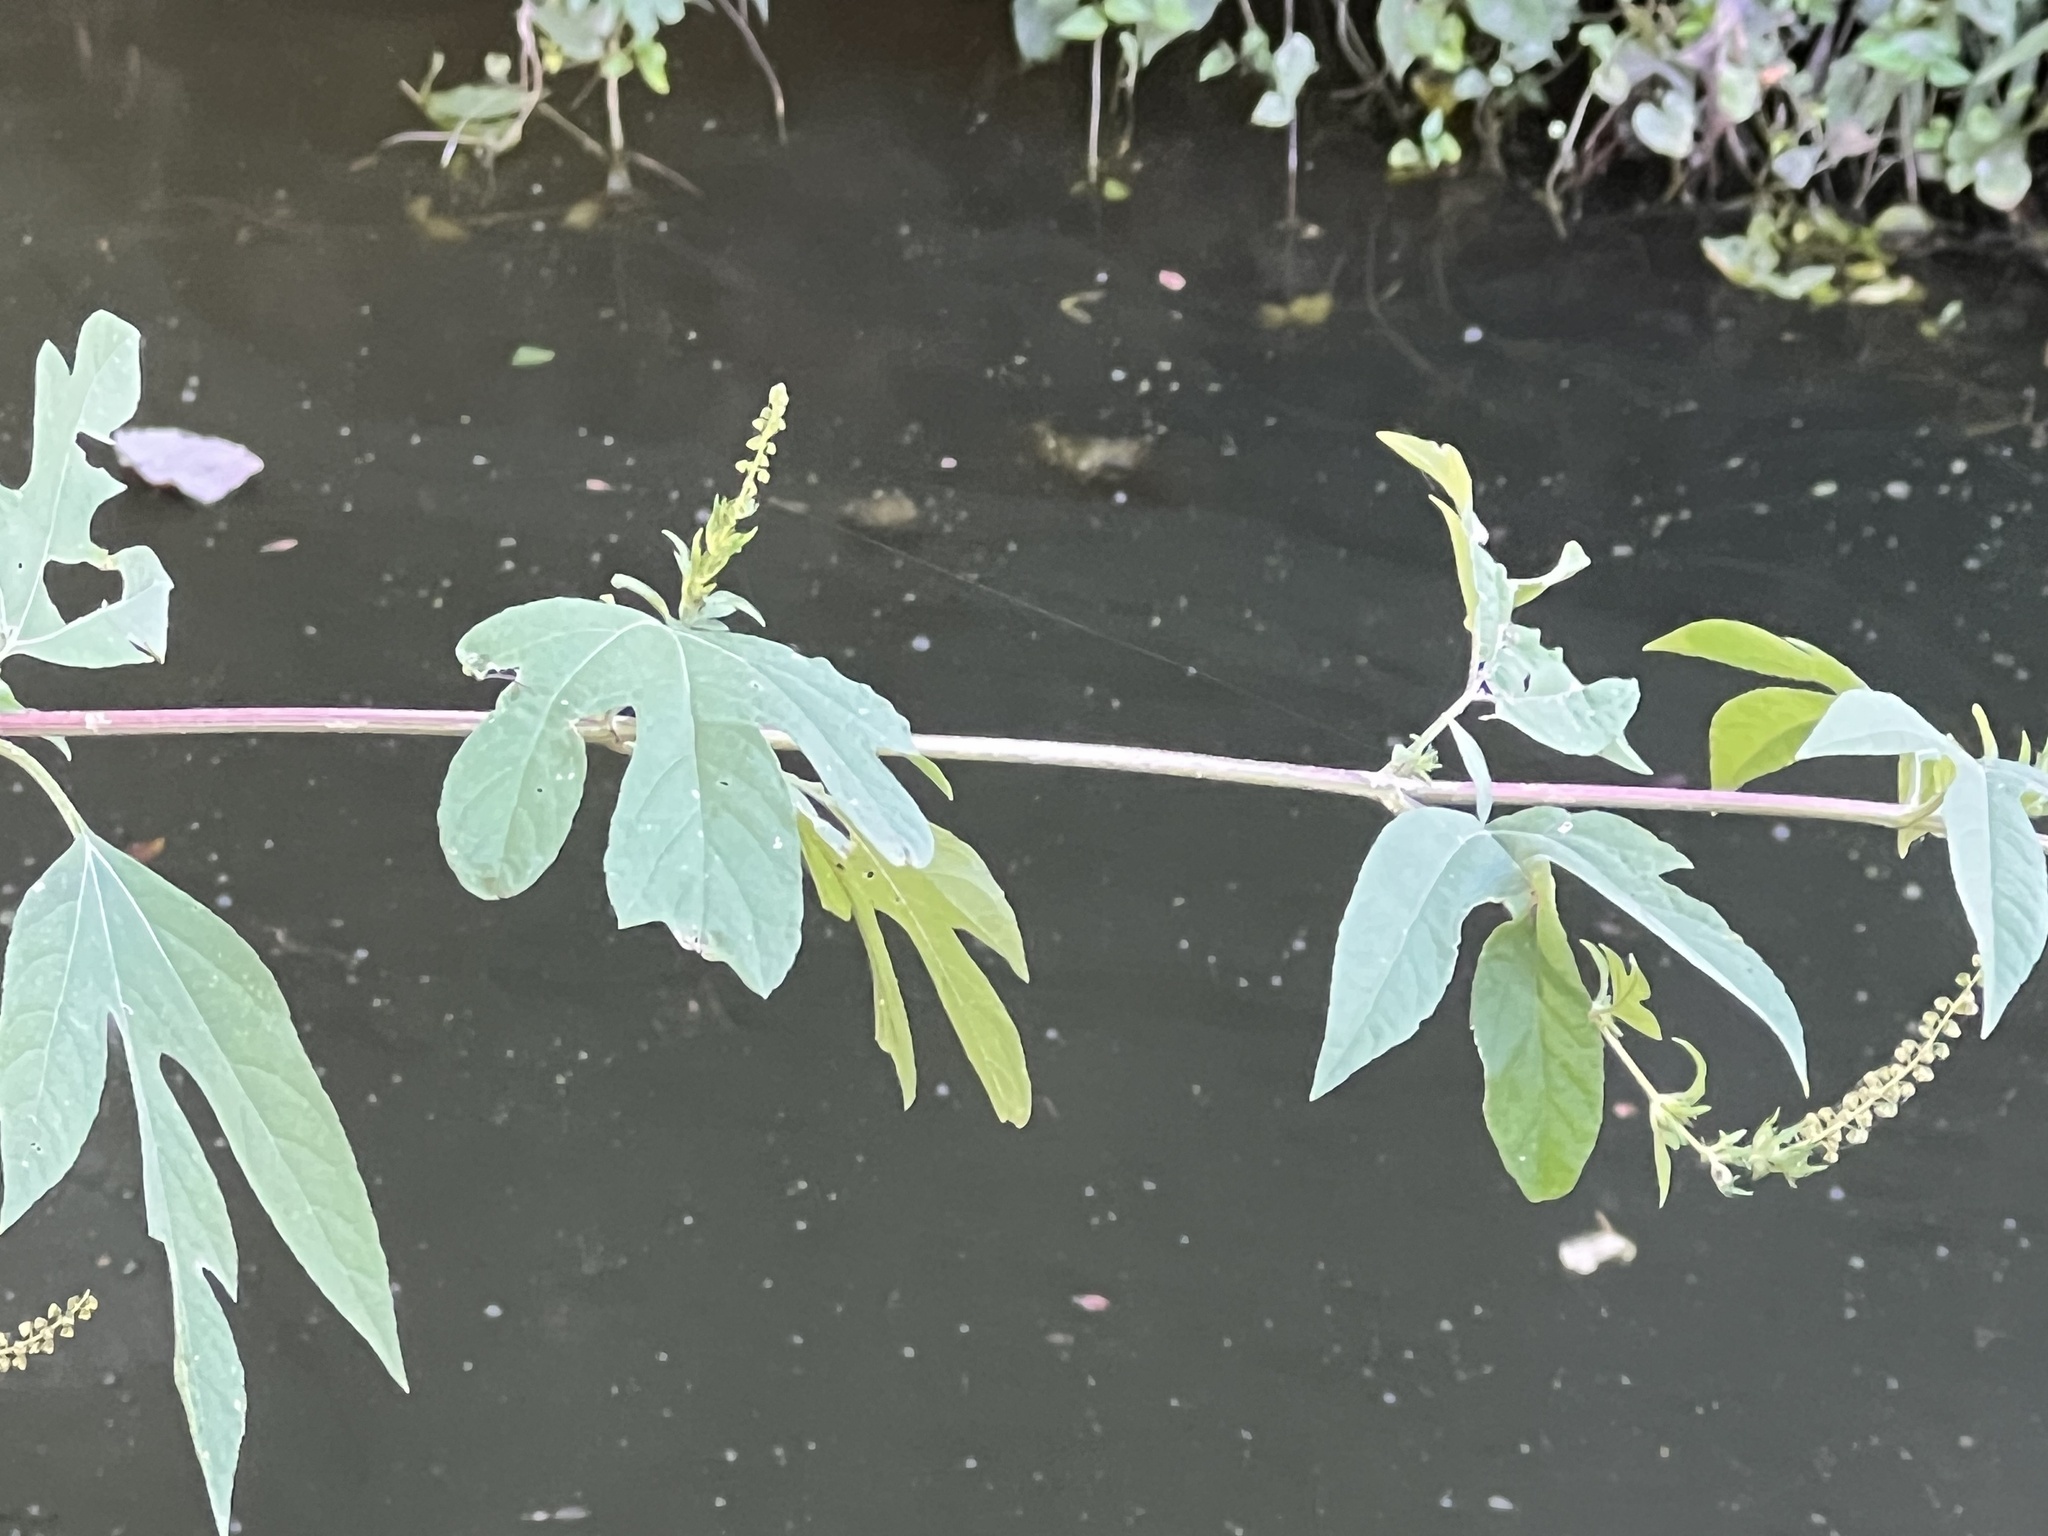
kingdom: Plantae
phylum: Tracheophyta
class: Magnoliopsida
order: Asterales
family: Asteraceae
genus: Ambrosia
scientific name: Ambrosia trifida
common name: Giant ragweed
